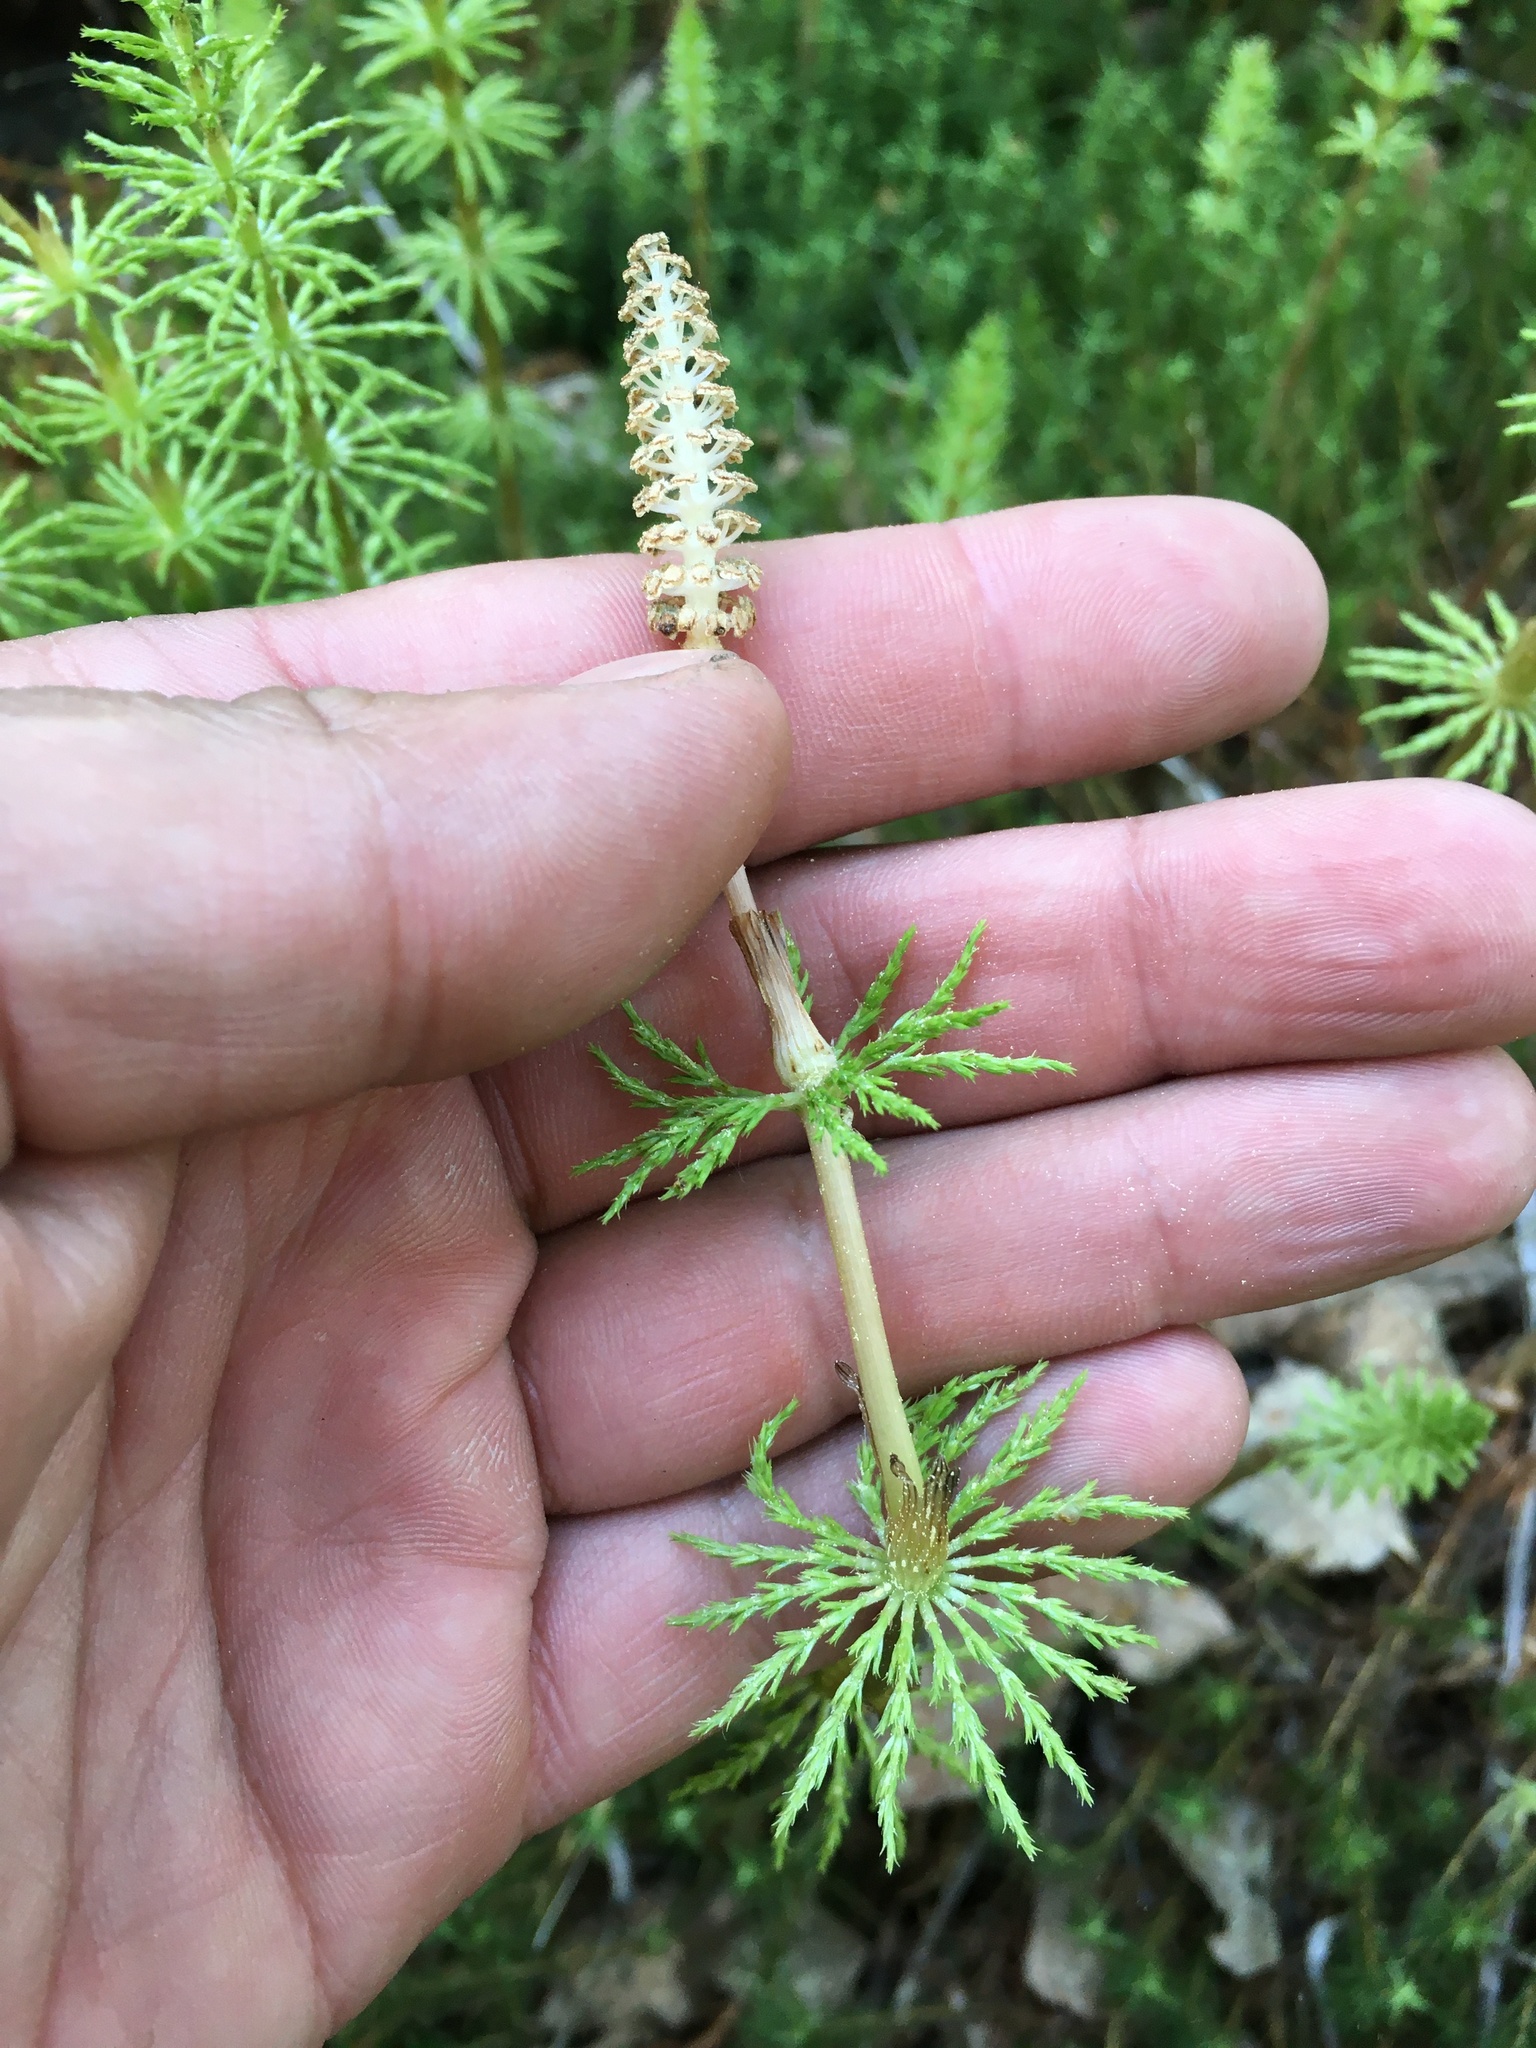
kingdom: Plantae
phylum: Tracheophyta
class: Polypodiopsida
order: Equisetales
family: Equisetaceae
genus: Equisetum
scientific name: Equisetum sylvaticum
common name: Wood horsetail
